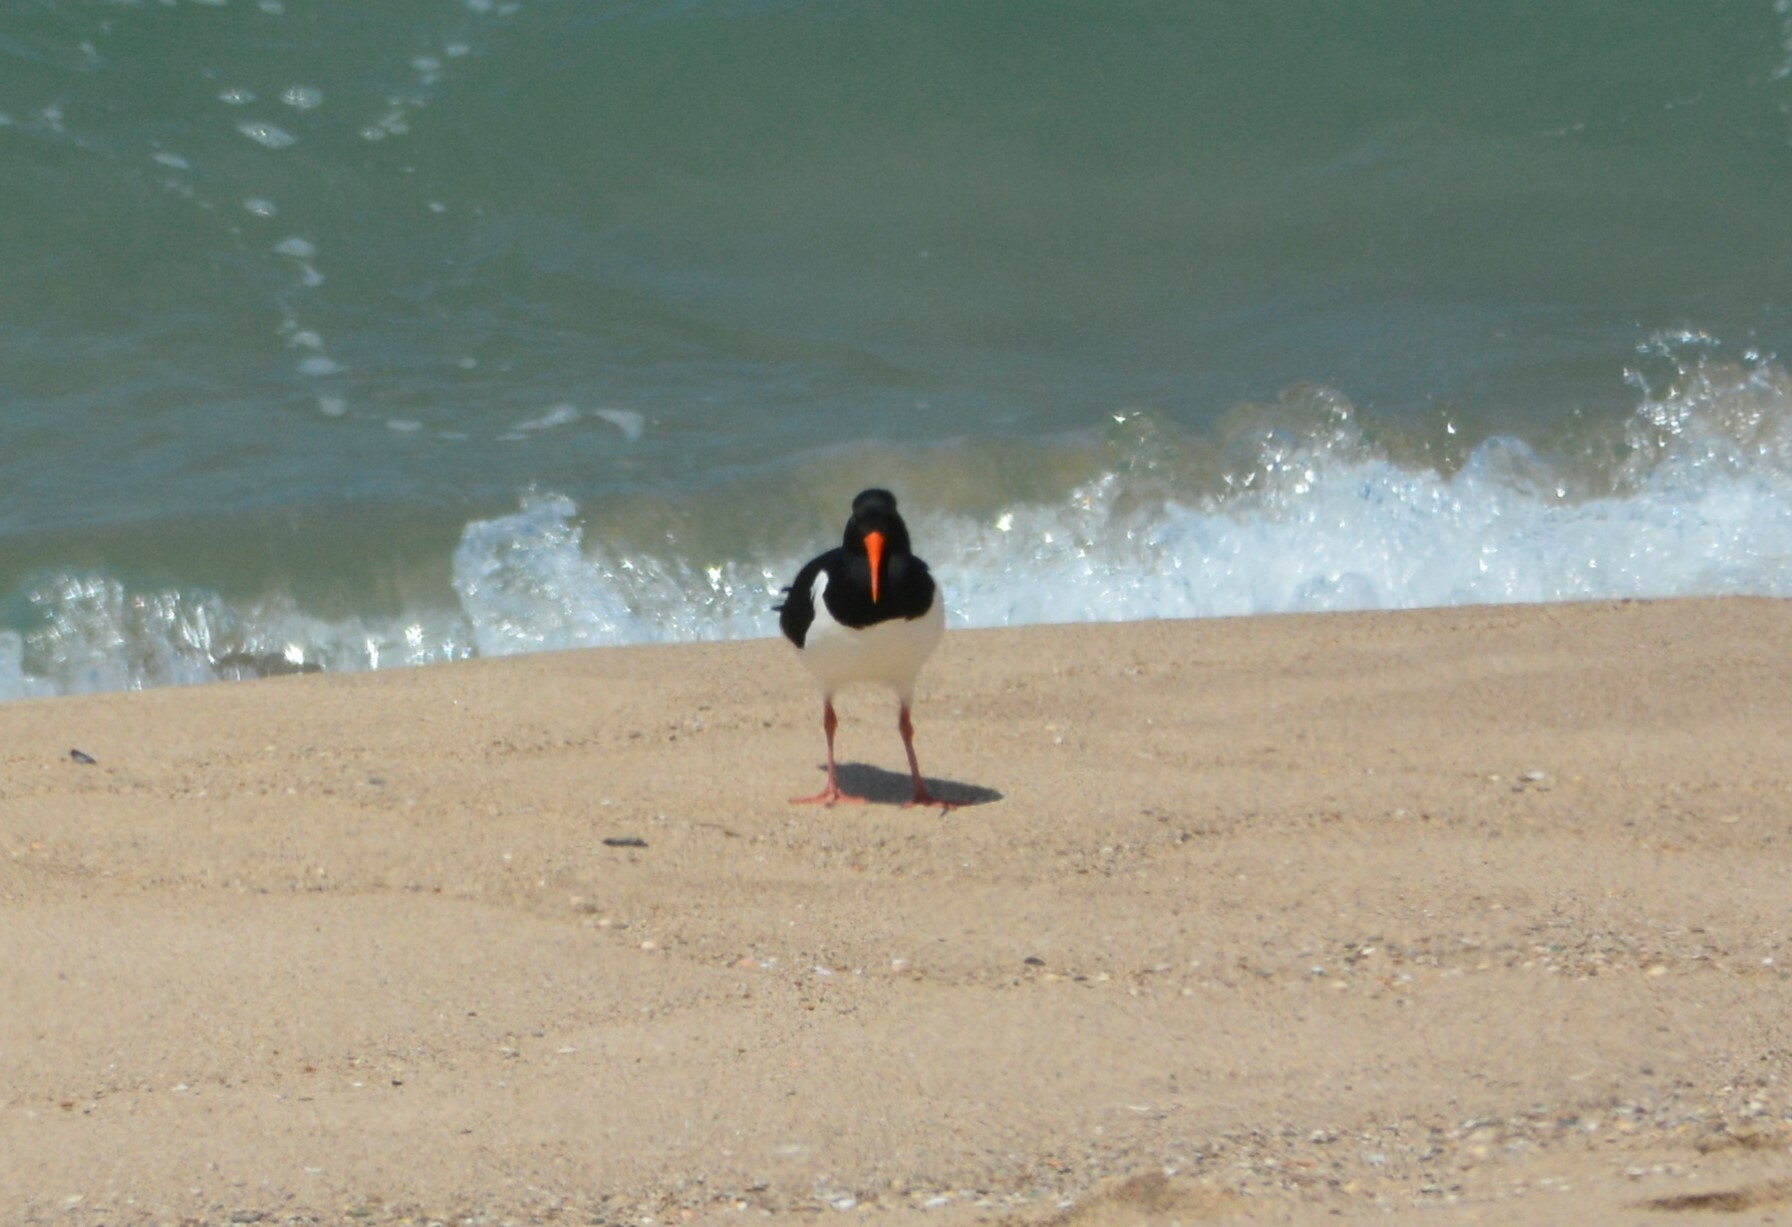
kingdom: Animalia
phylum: Chordata
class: Aves
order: Charadriiformes
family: Haematopodidae
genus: Haematopus
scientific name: Haematopus ostralegus
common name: Eurasian oystercatcher
